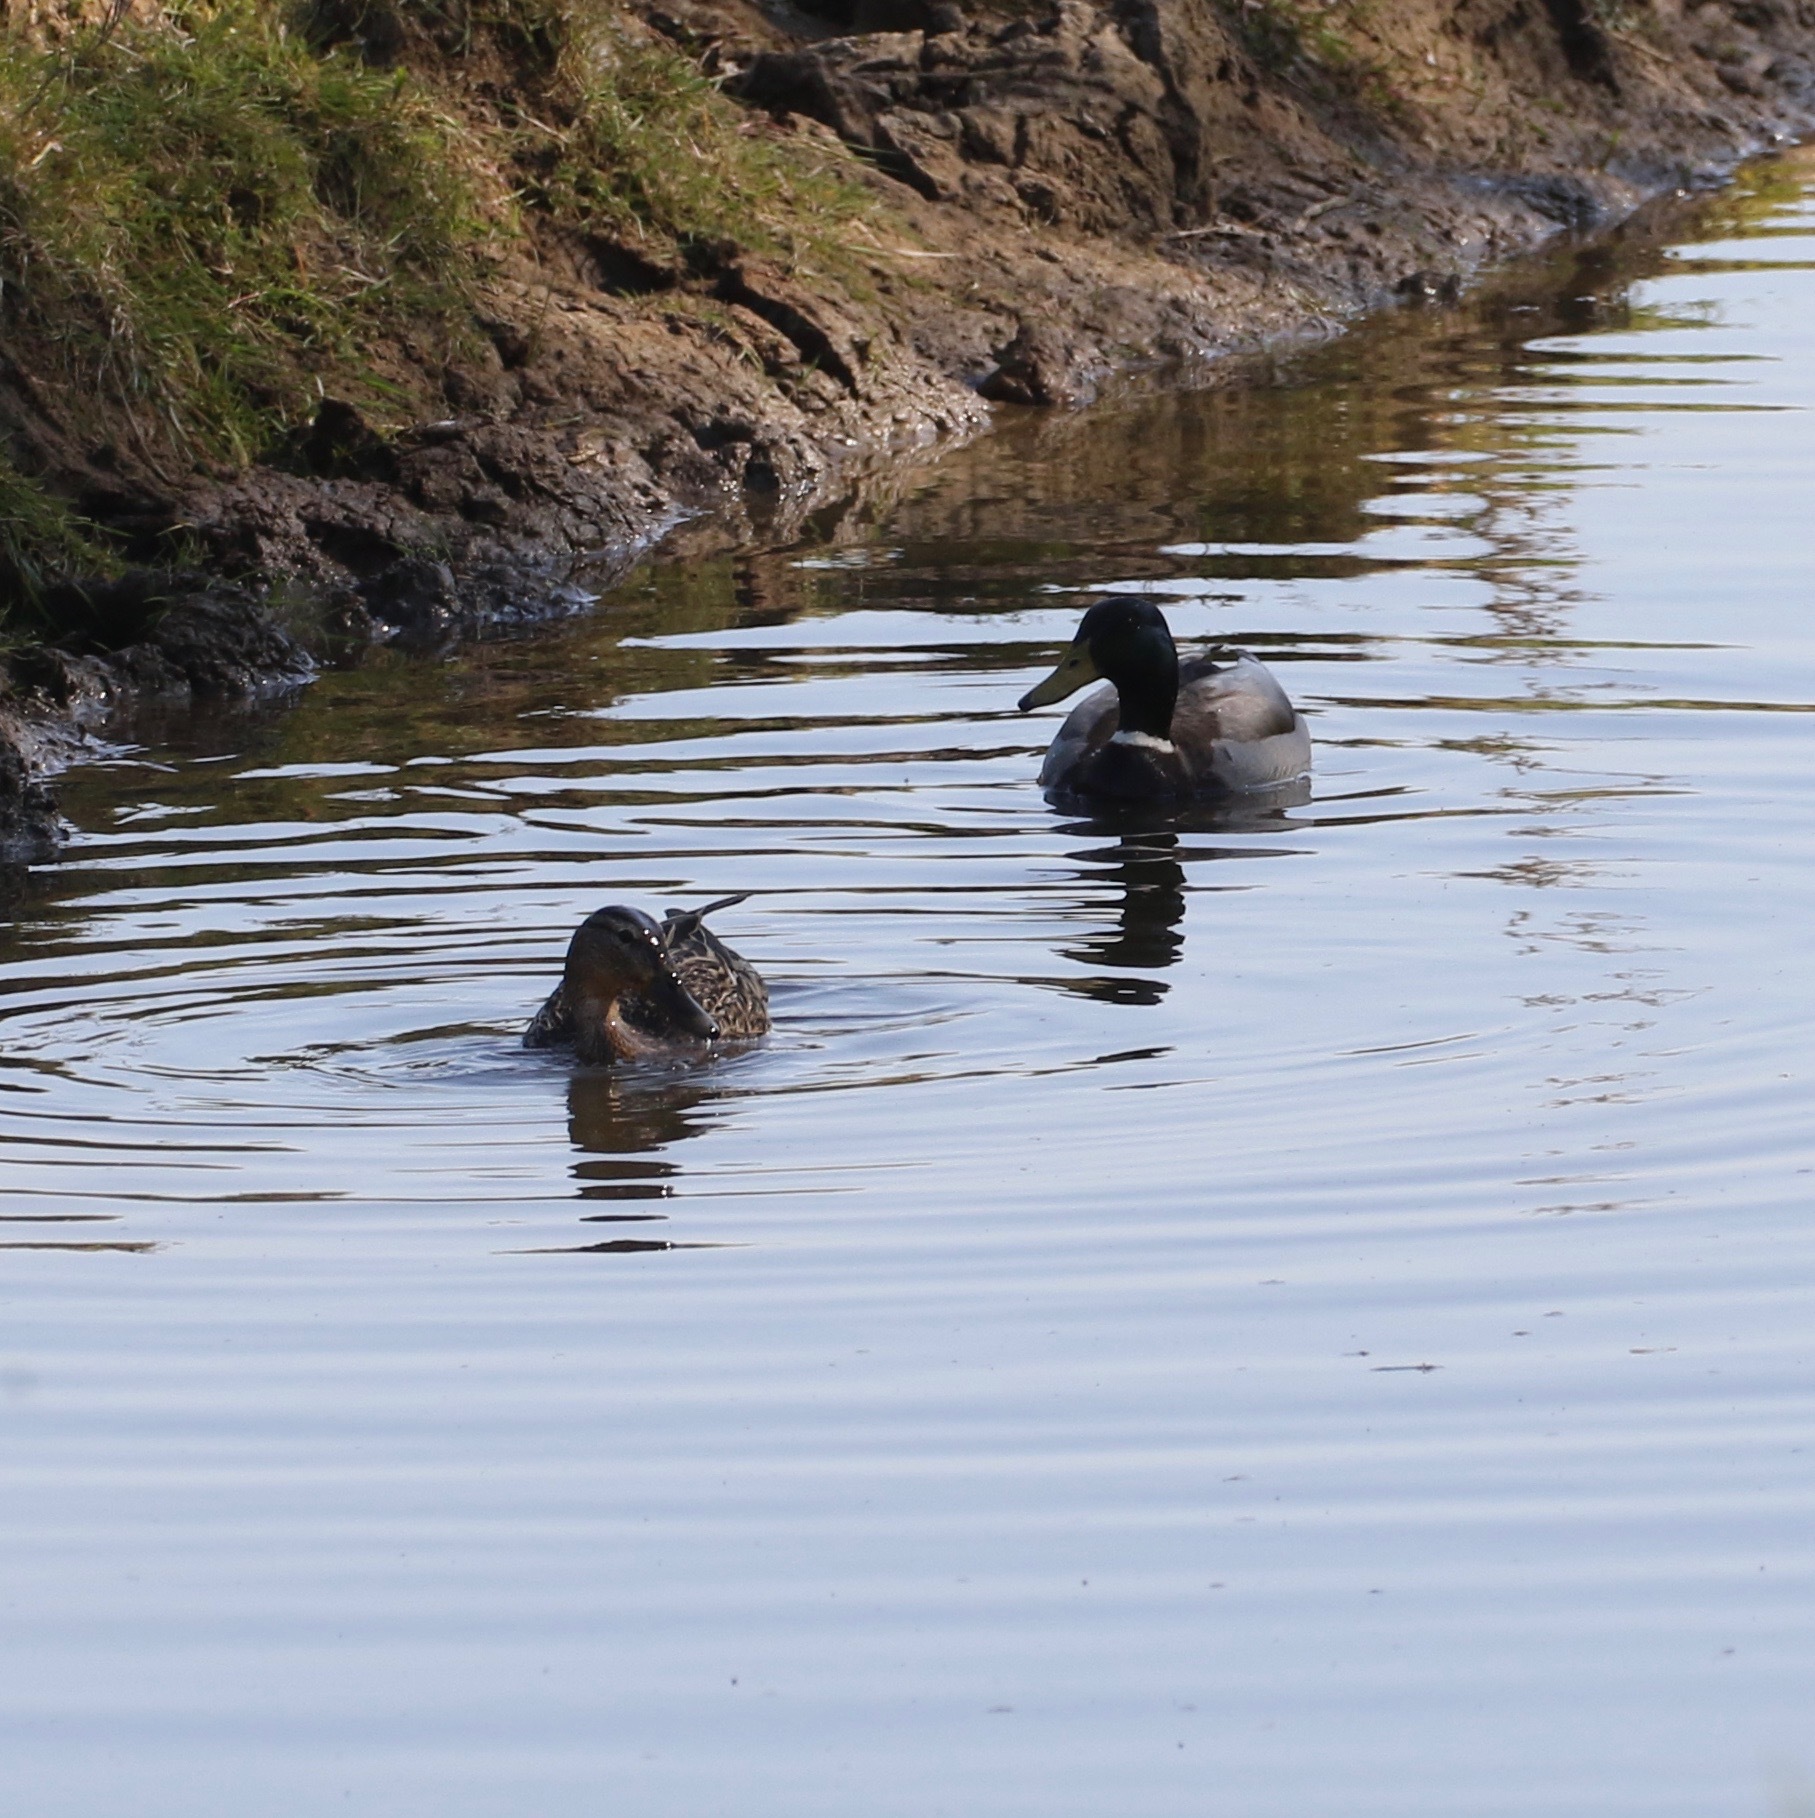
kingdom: Animalia
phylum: Chordata
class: Aves
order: Anseriformes
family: Anatidae
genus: Anas
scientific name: Anas platyrhynchos
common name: Mallard
